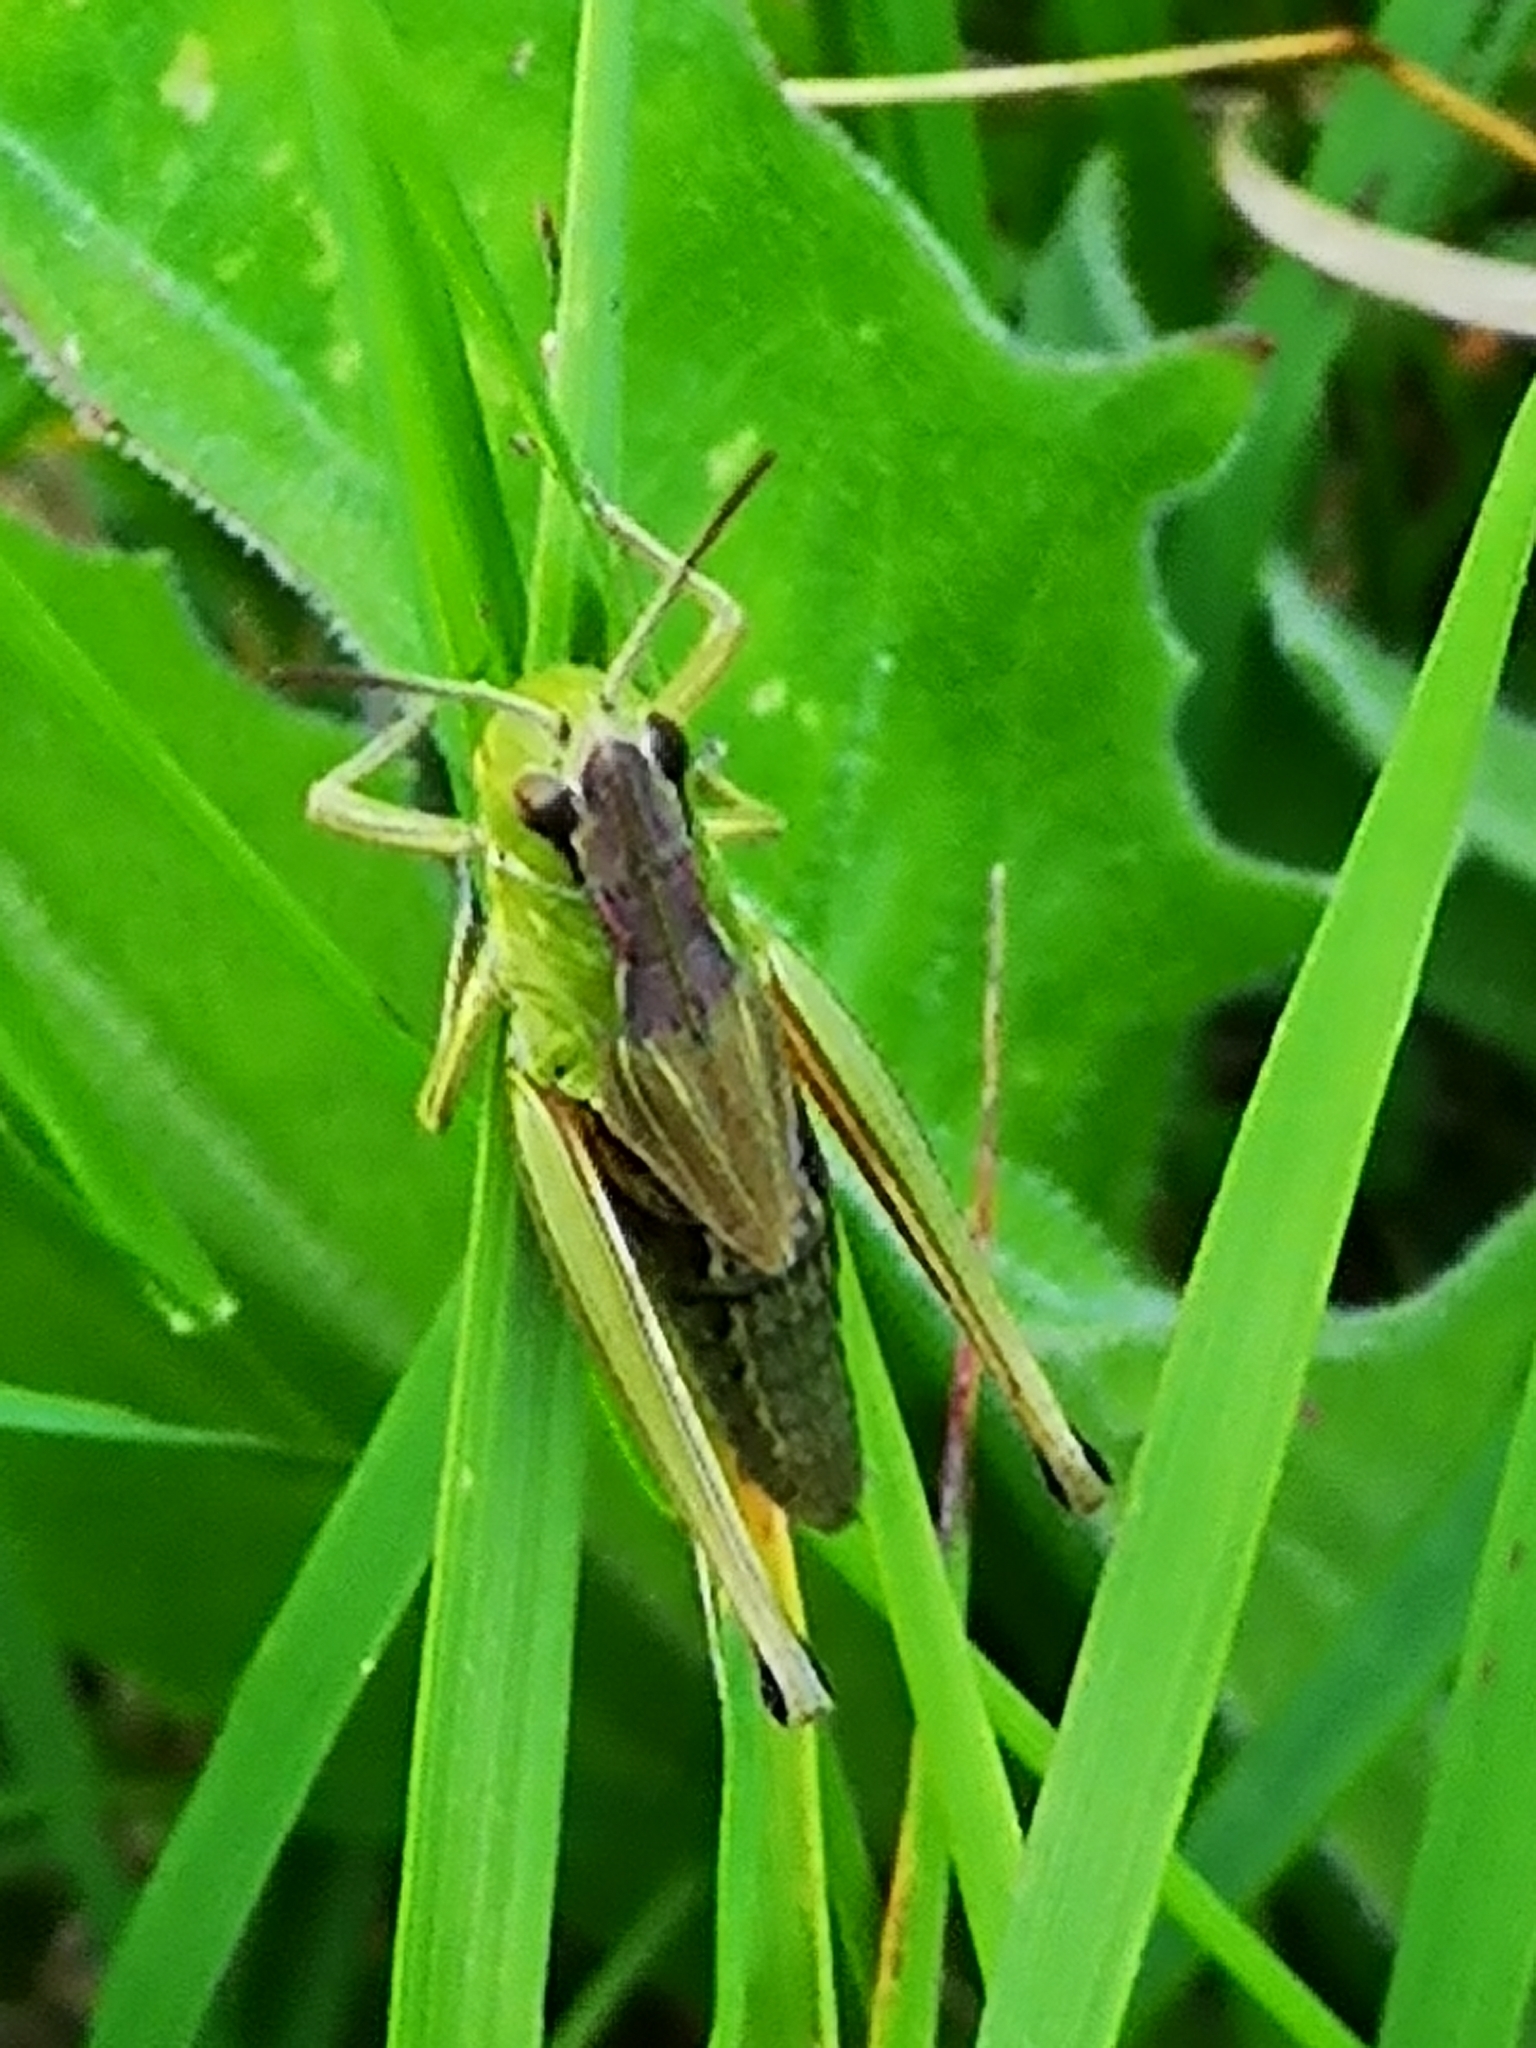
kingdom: Animalia
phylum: Arthropoda
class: Insecta
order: Orthoptera
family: Acrididae
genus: Pseudochorthippus
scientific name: Pseudochorthippus parallelus
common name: Meadow grasshopper
